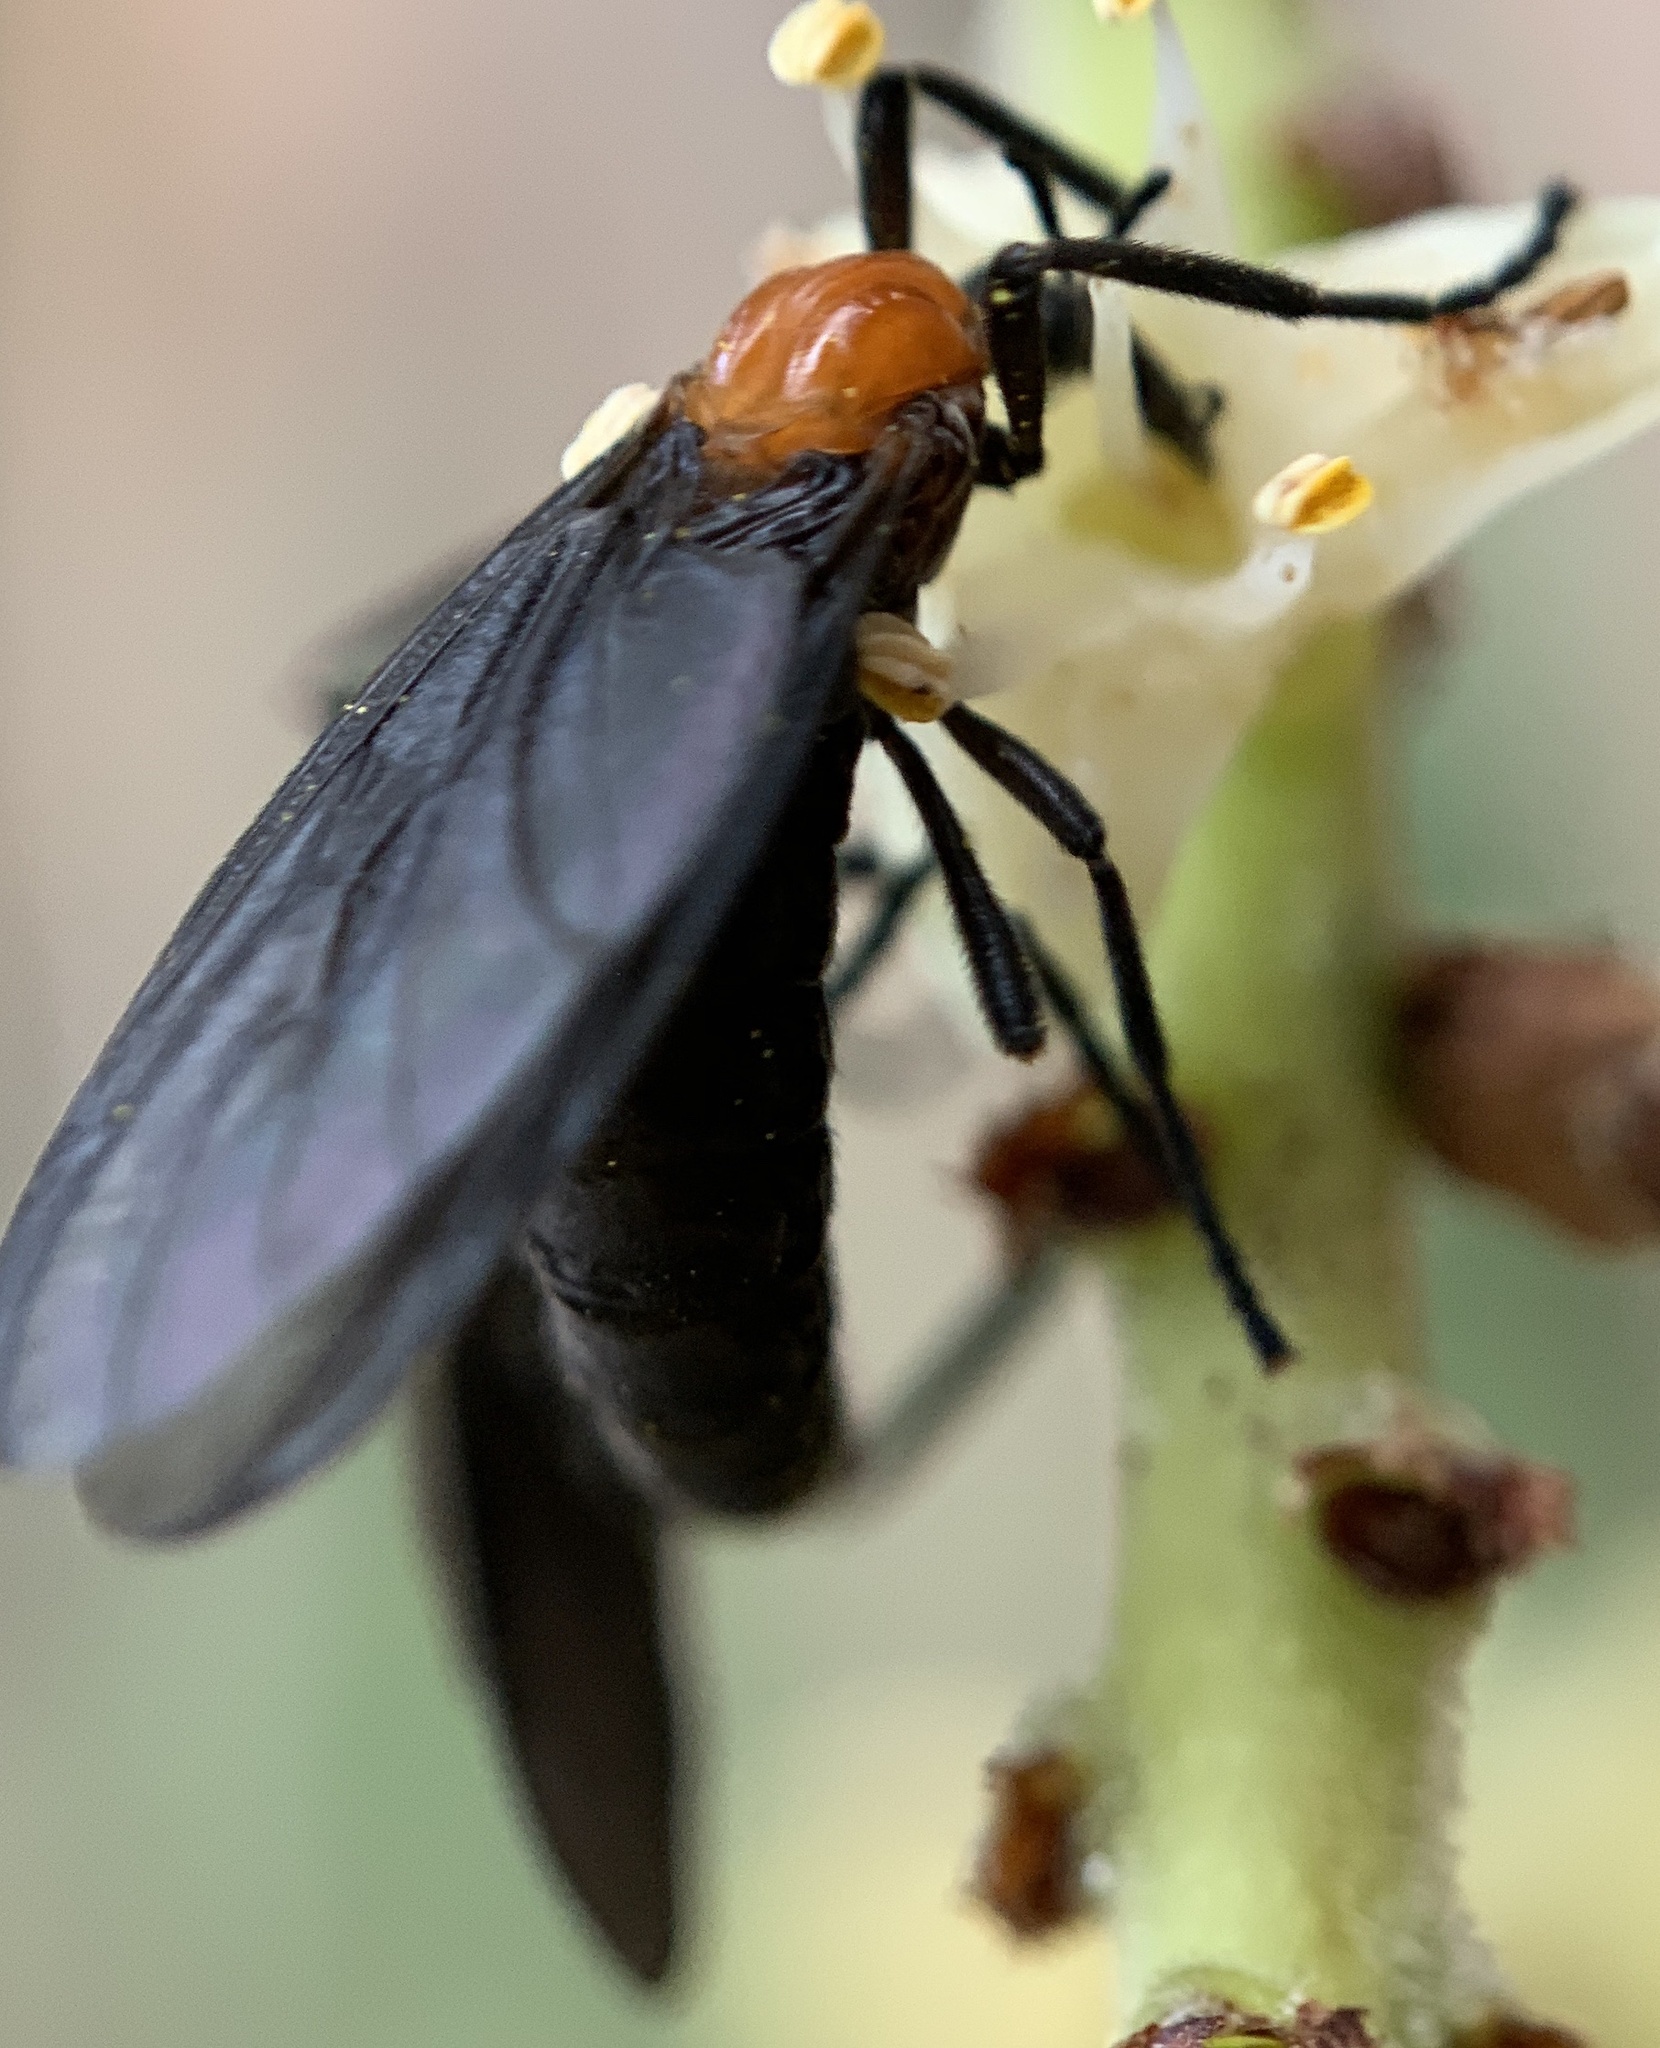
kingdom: Animalia
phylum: Arthropoda
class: Insecta
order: Diptera
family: Bibionidae
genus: Plecia
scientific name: Plecia nearctica
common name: March fly
